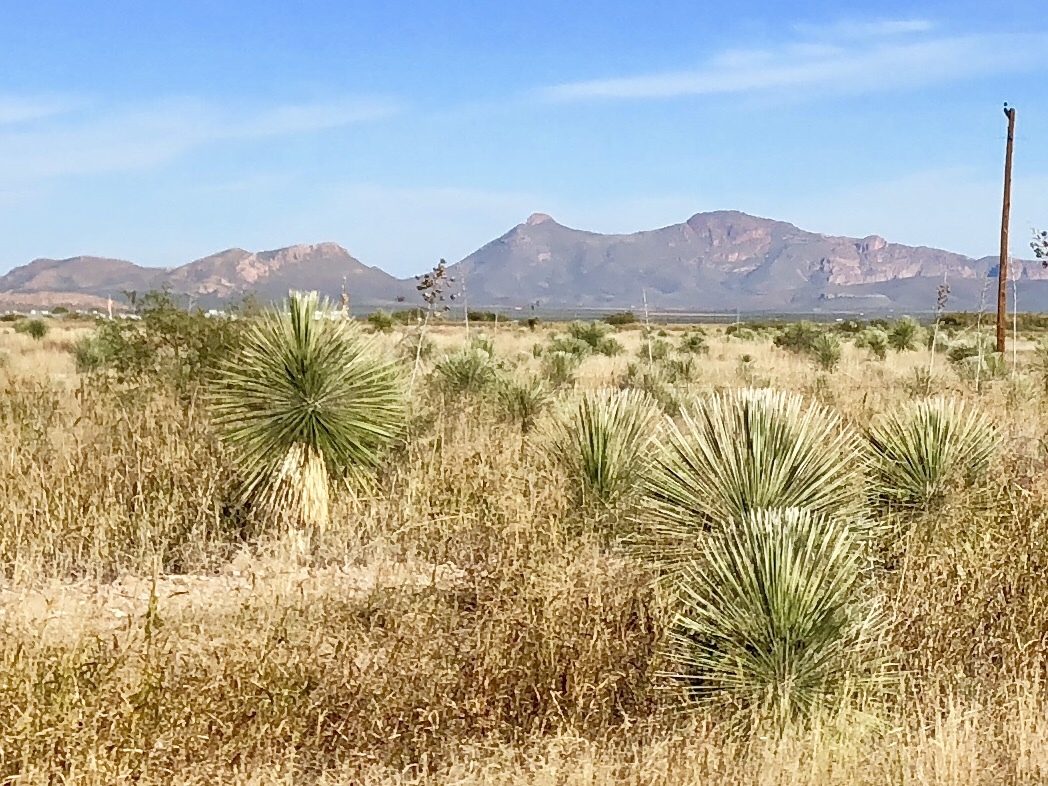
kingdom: Plantae
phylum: Tracheophyta
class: Liliopsida
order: Asparagales
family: Asparagaceae
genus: Yucca
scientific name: Yucca elata
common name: Palmella
